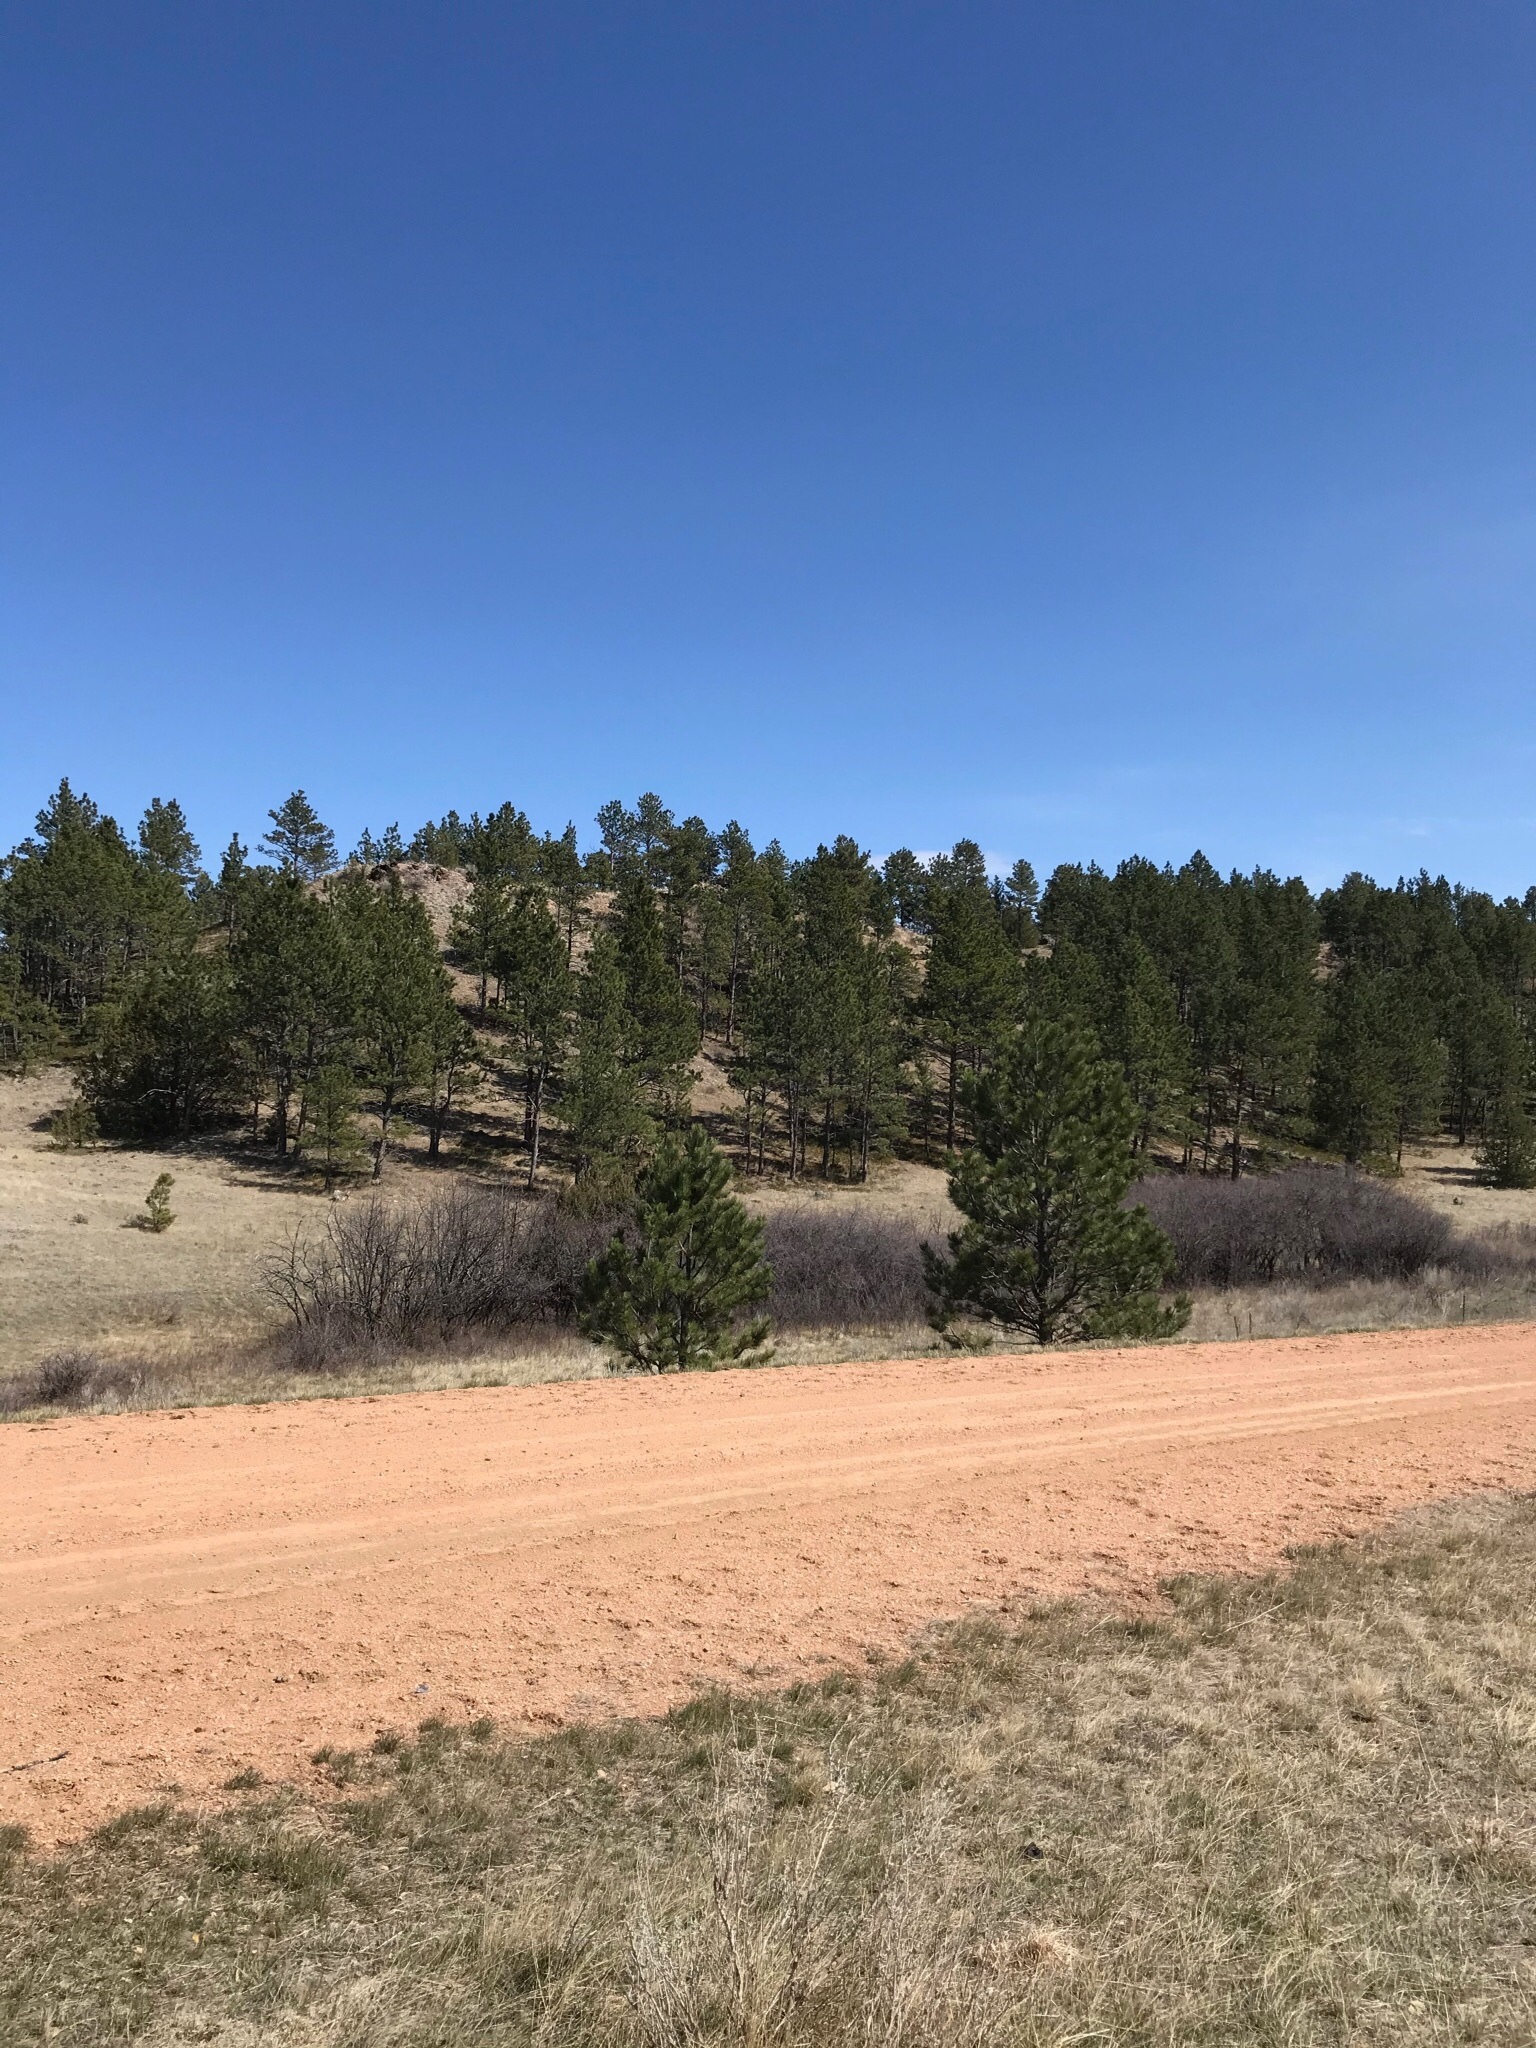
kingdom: Plantae
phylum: Tracheophyta
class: Pinopsida
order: Pinales
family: Pinaceae
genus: Pinus
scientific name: Pinus ponderosa
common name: Western yellow-pine
